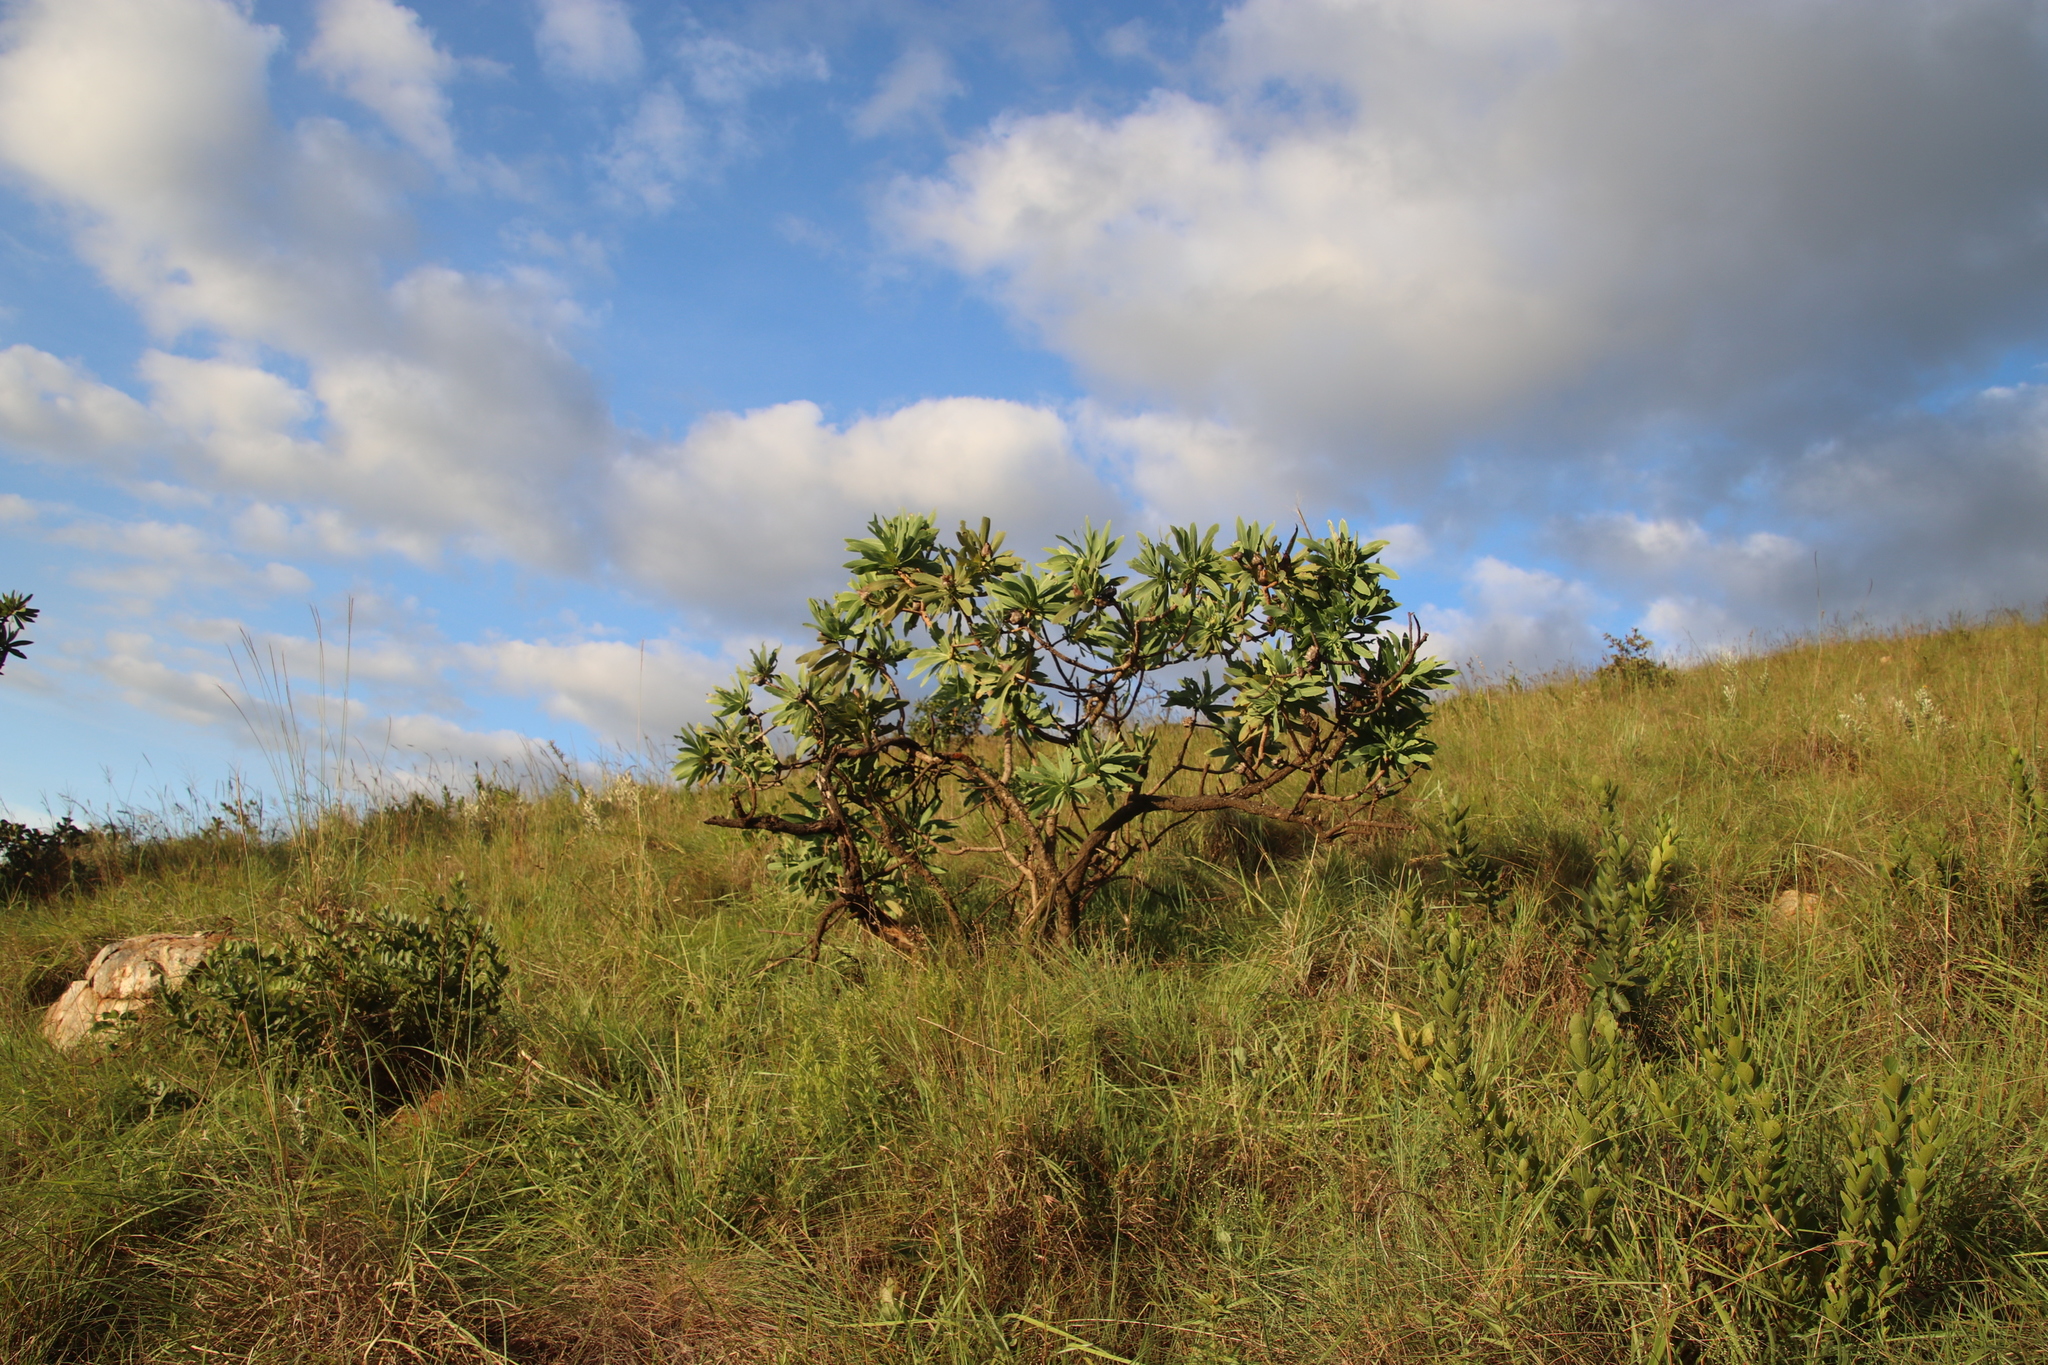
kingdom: Plantae
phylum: Tracheophyta
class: Magnoliopsida
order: Proteales
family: Proteaceae
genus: Protea
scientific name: Protea caffra
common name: Common sugarbush
